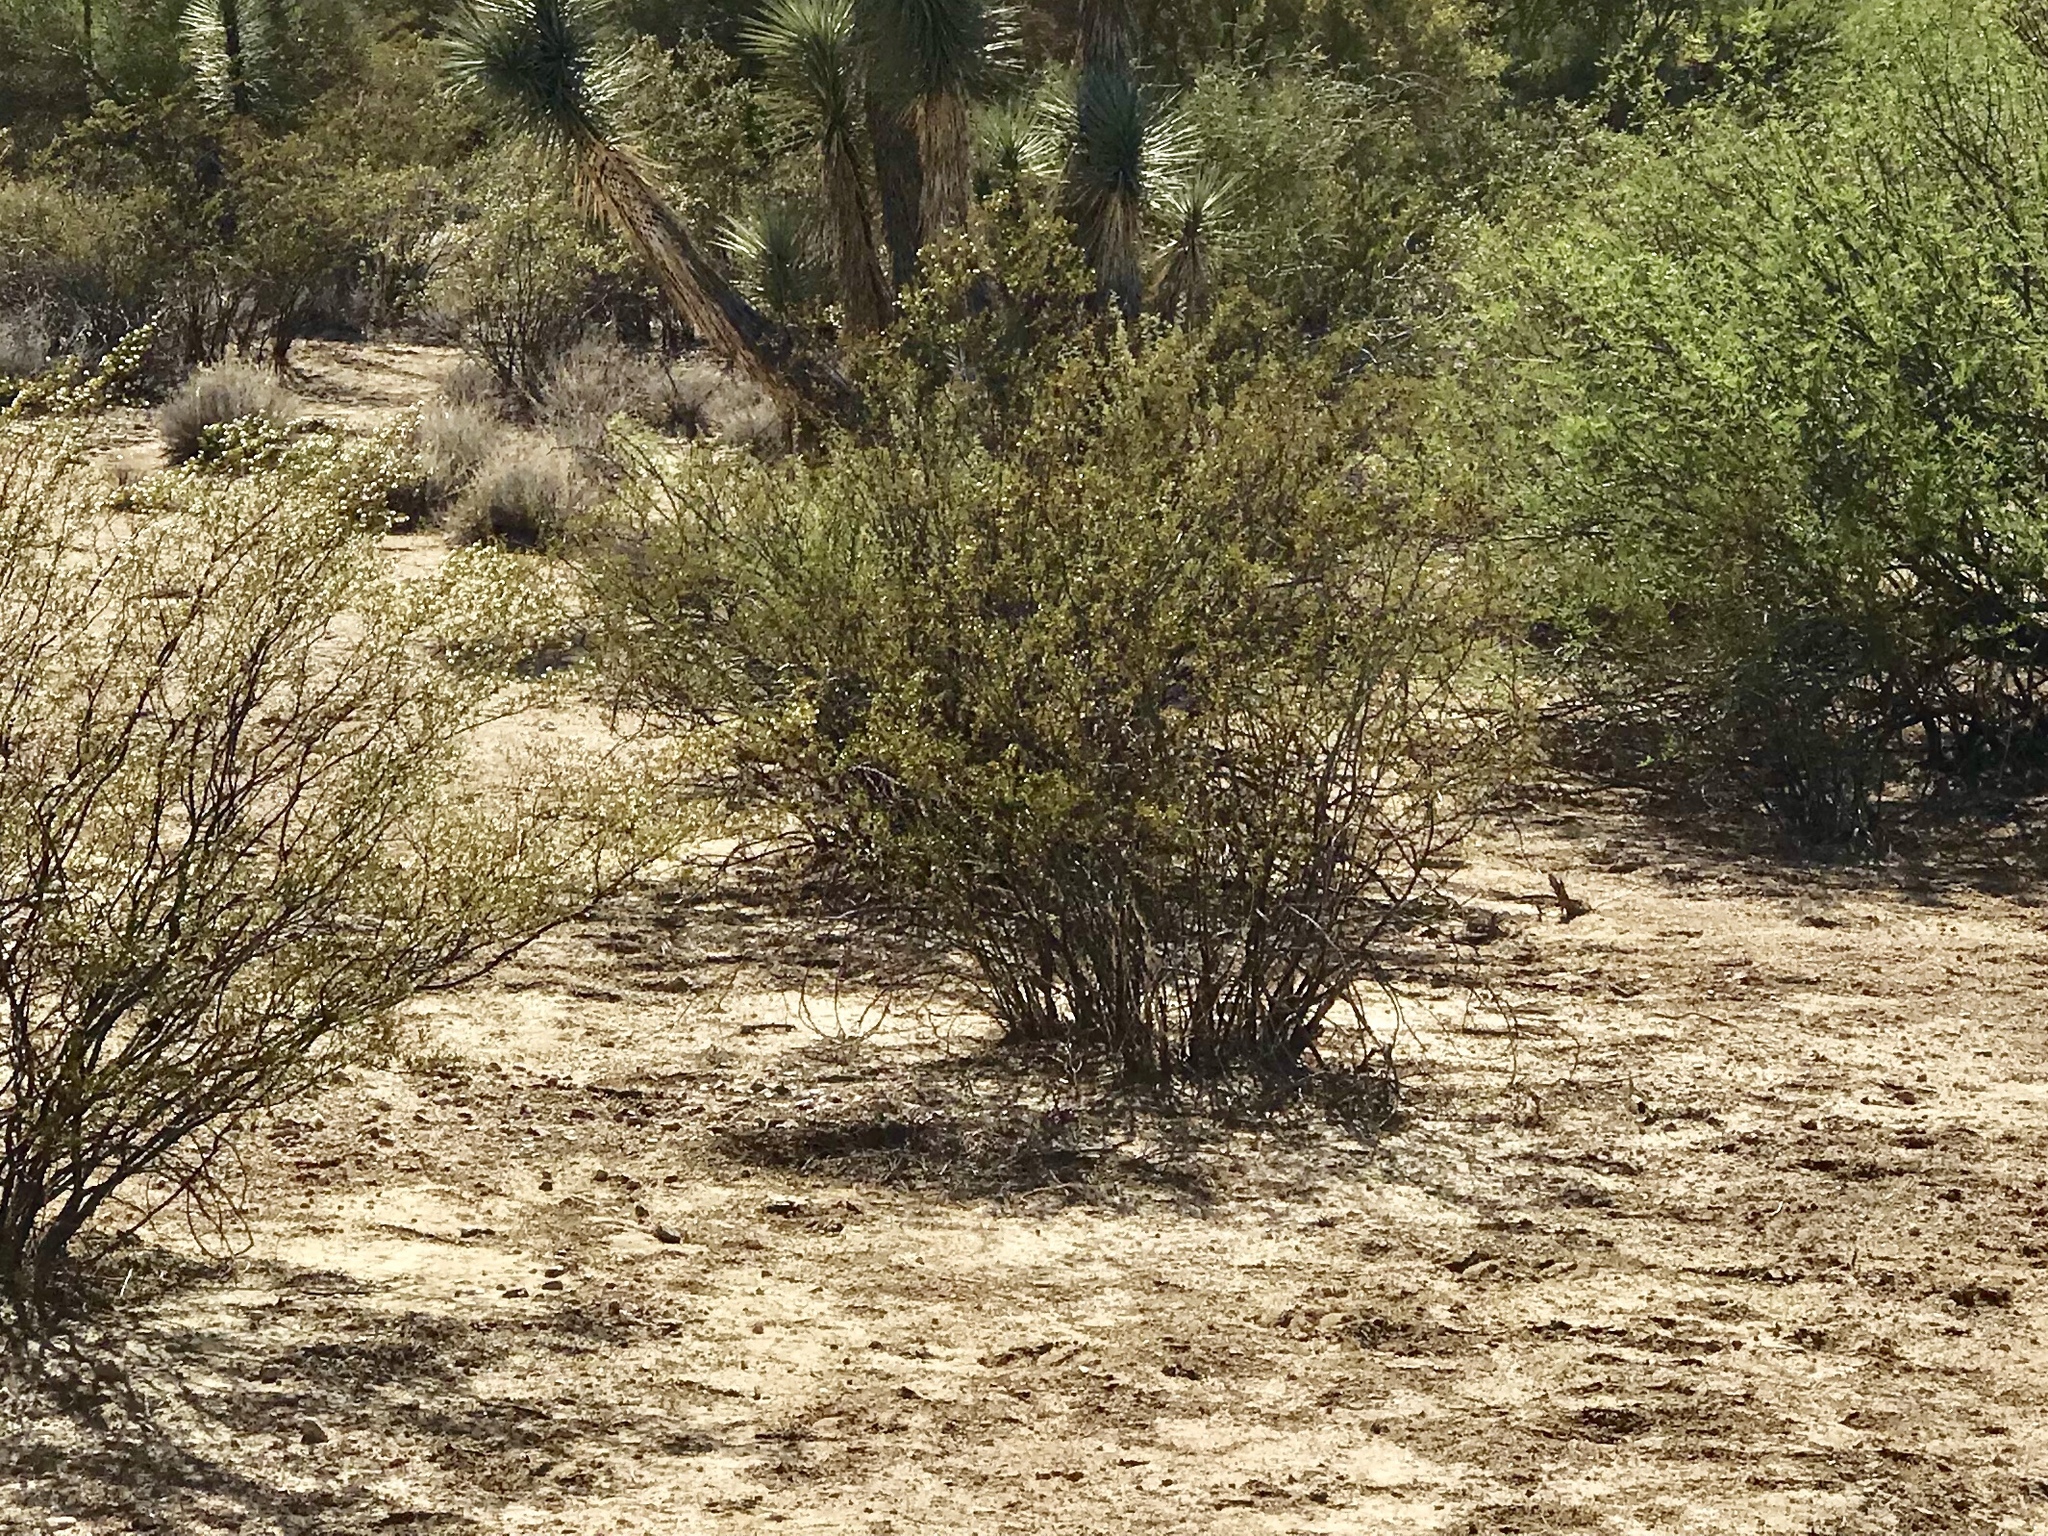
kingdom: Plantae
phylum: Tracheophyta
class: Magnoliopsida
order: Zygophyllales
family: Zygophyllaceae
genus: Larrea
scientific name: Larrea tridentata
